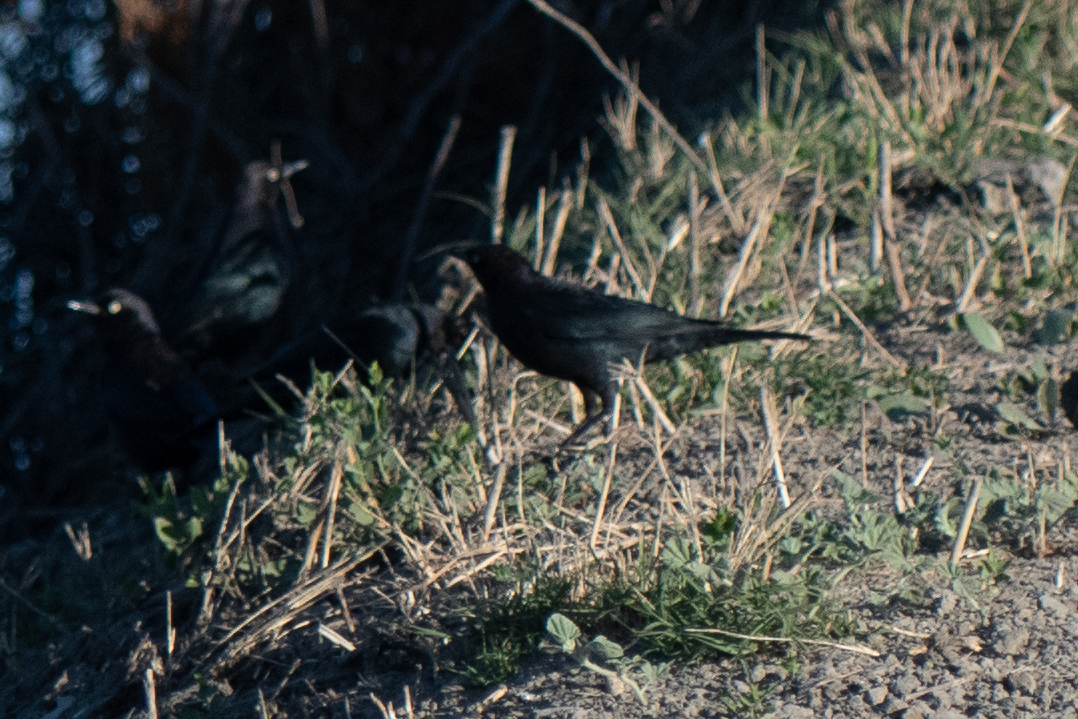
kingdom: Animalia
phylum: Chordata
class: Aves
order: Passeriformes
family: Icteridae
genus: Euphagus
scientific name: Euphagus cyanocephalus
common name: Brewer's blackbird
